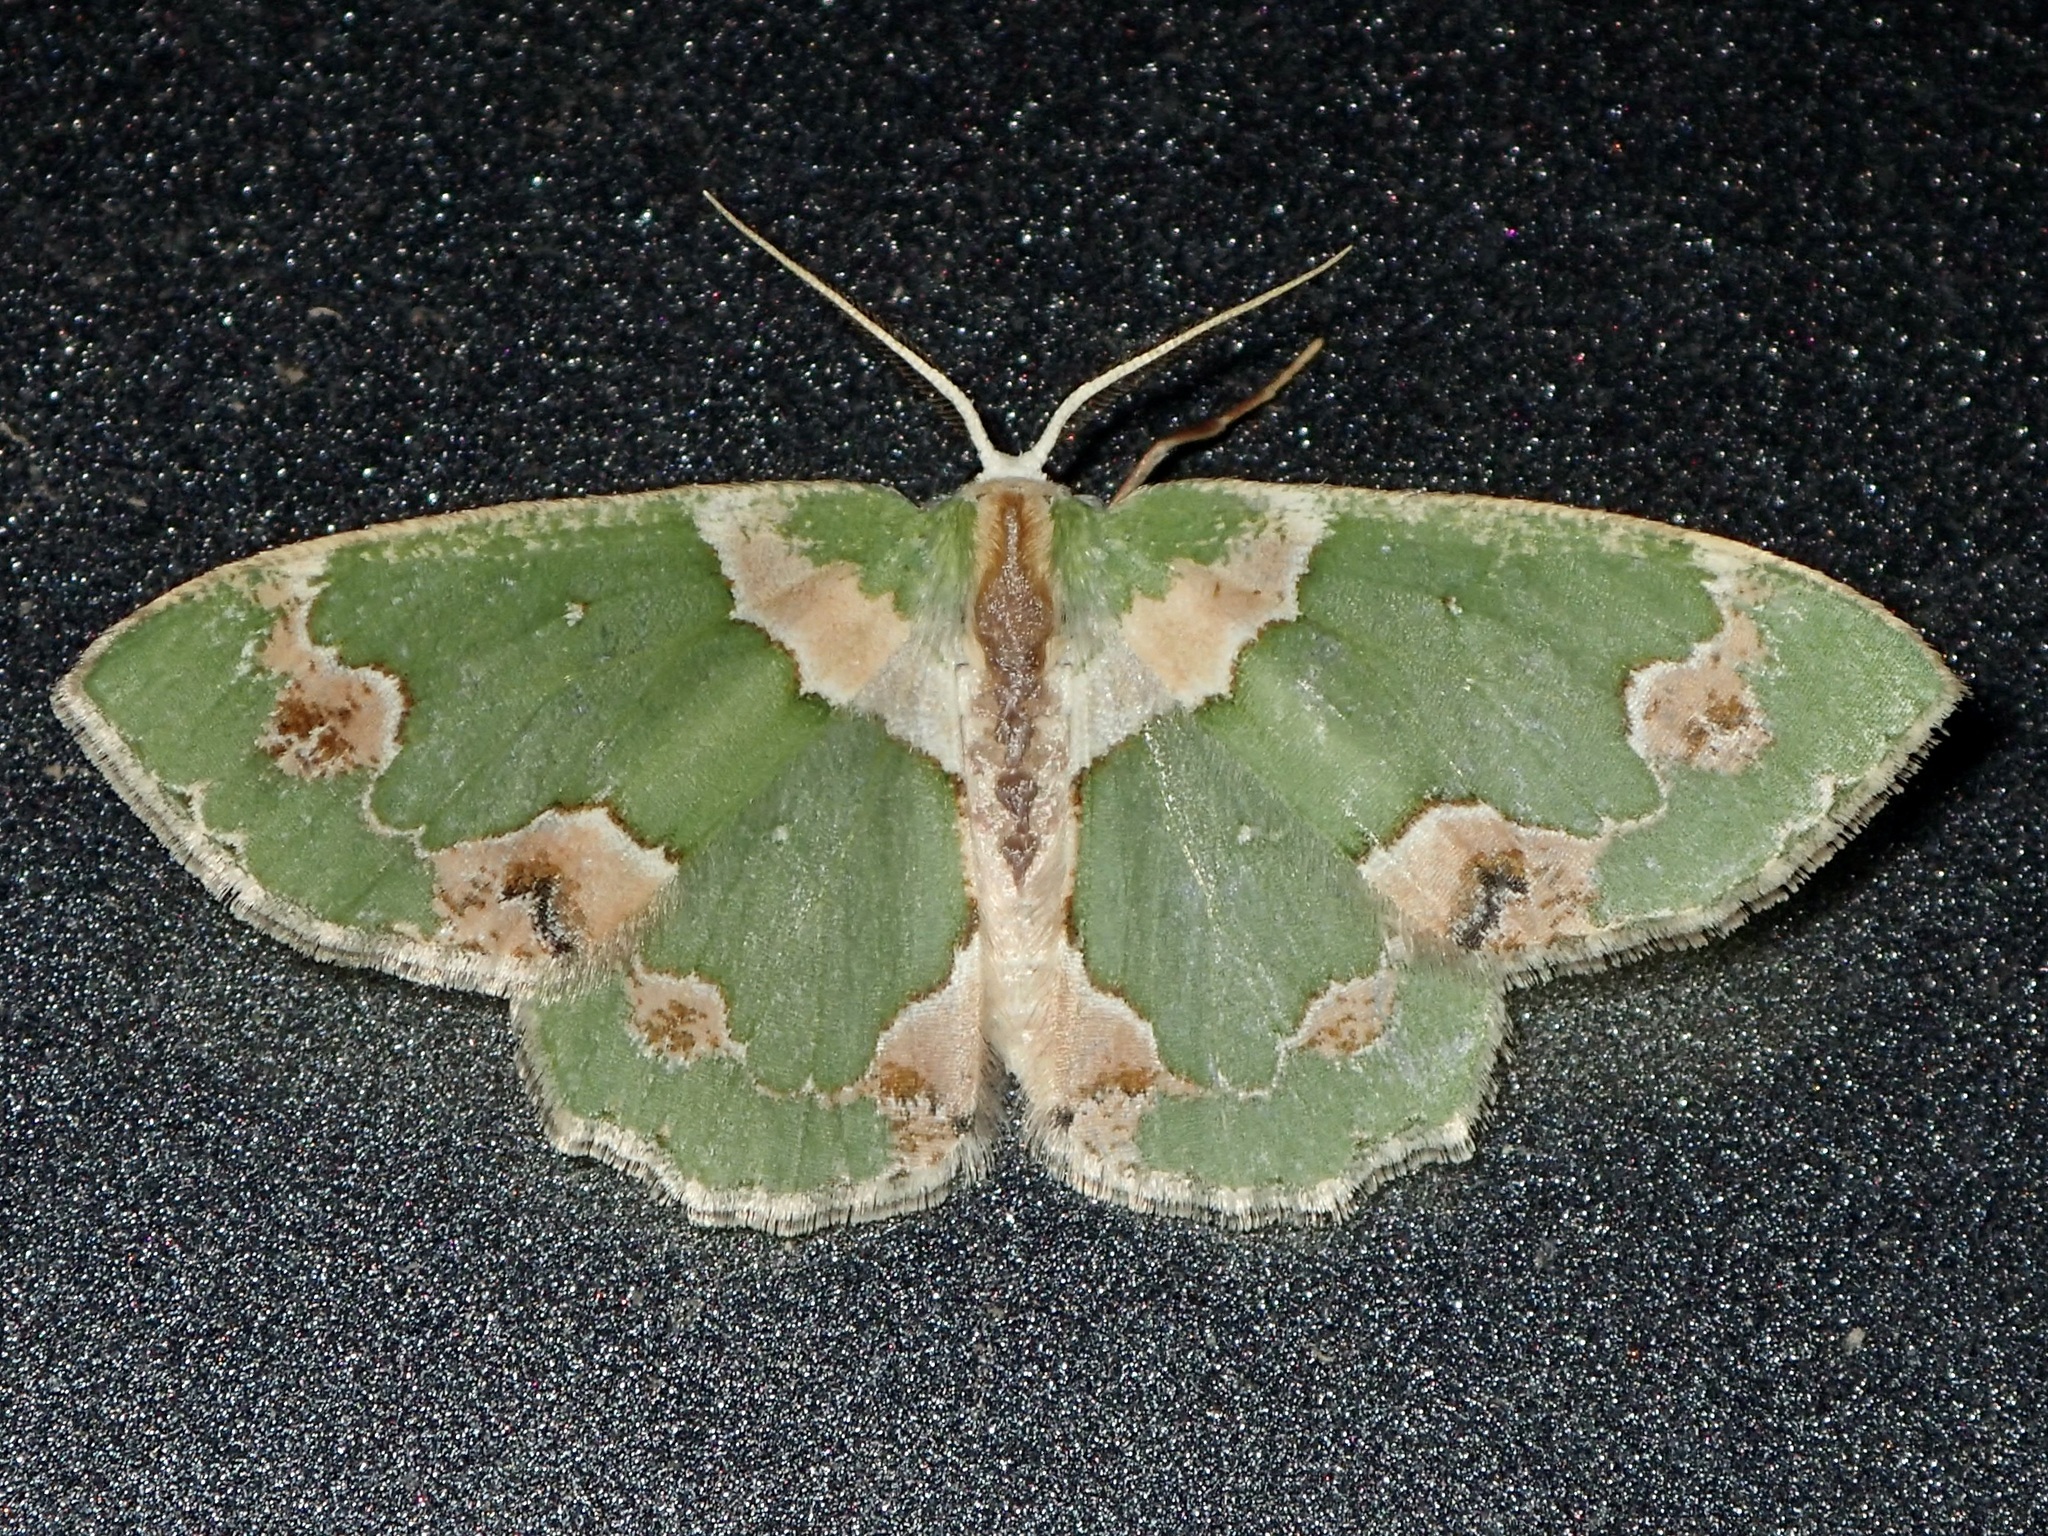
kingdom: Animalia
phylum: Arthropoda
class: Insecta
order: Lepidoptera
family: Geometridae
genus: Lophochorista
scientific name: Lophochorista lesteraria
